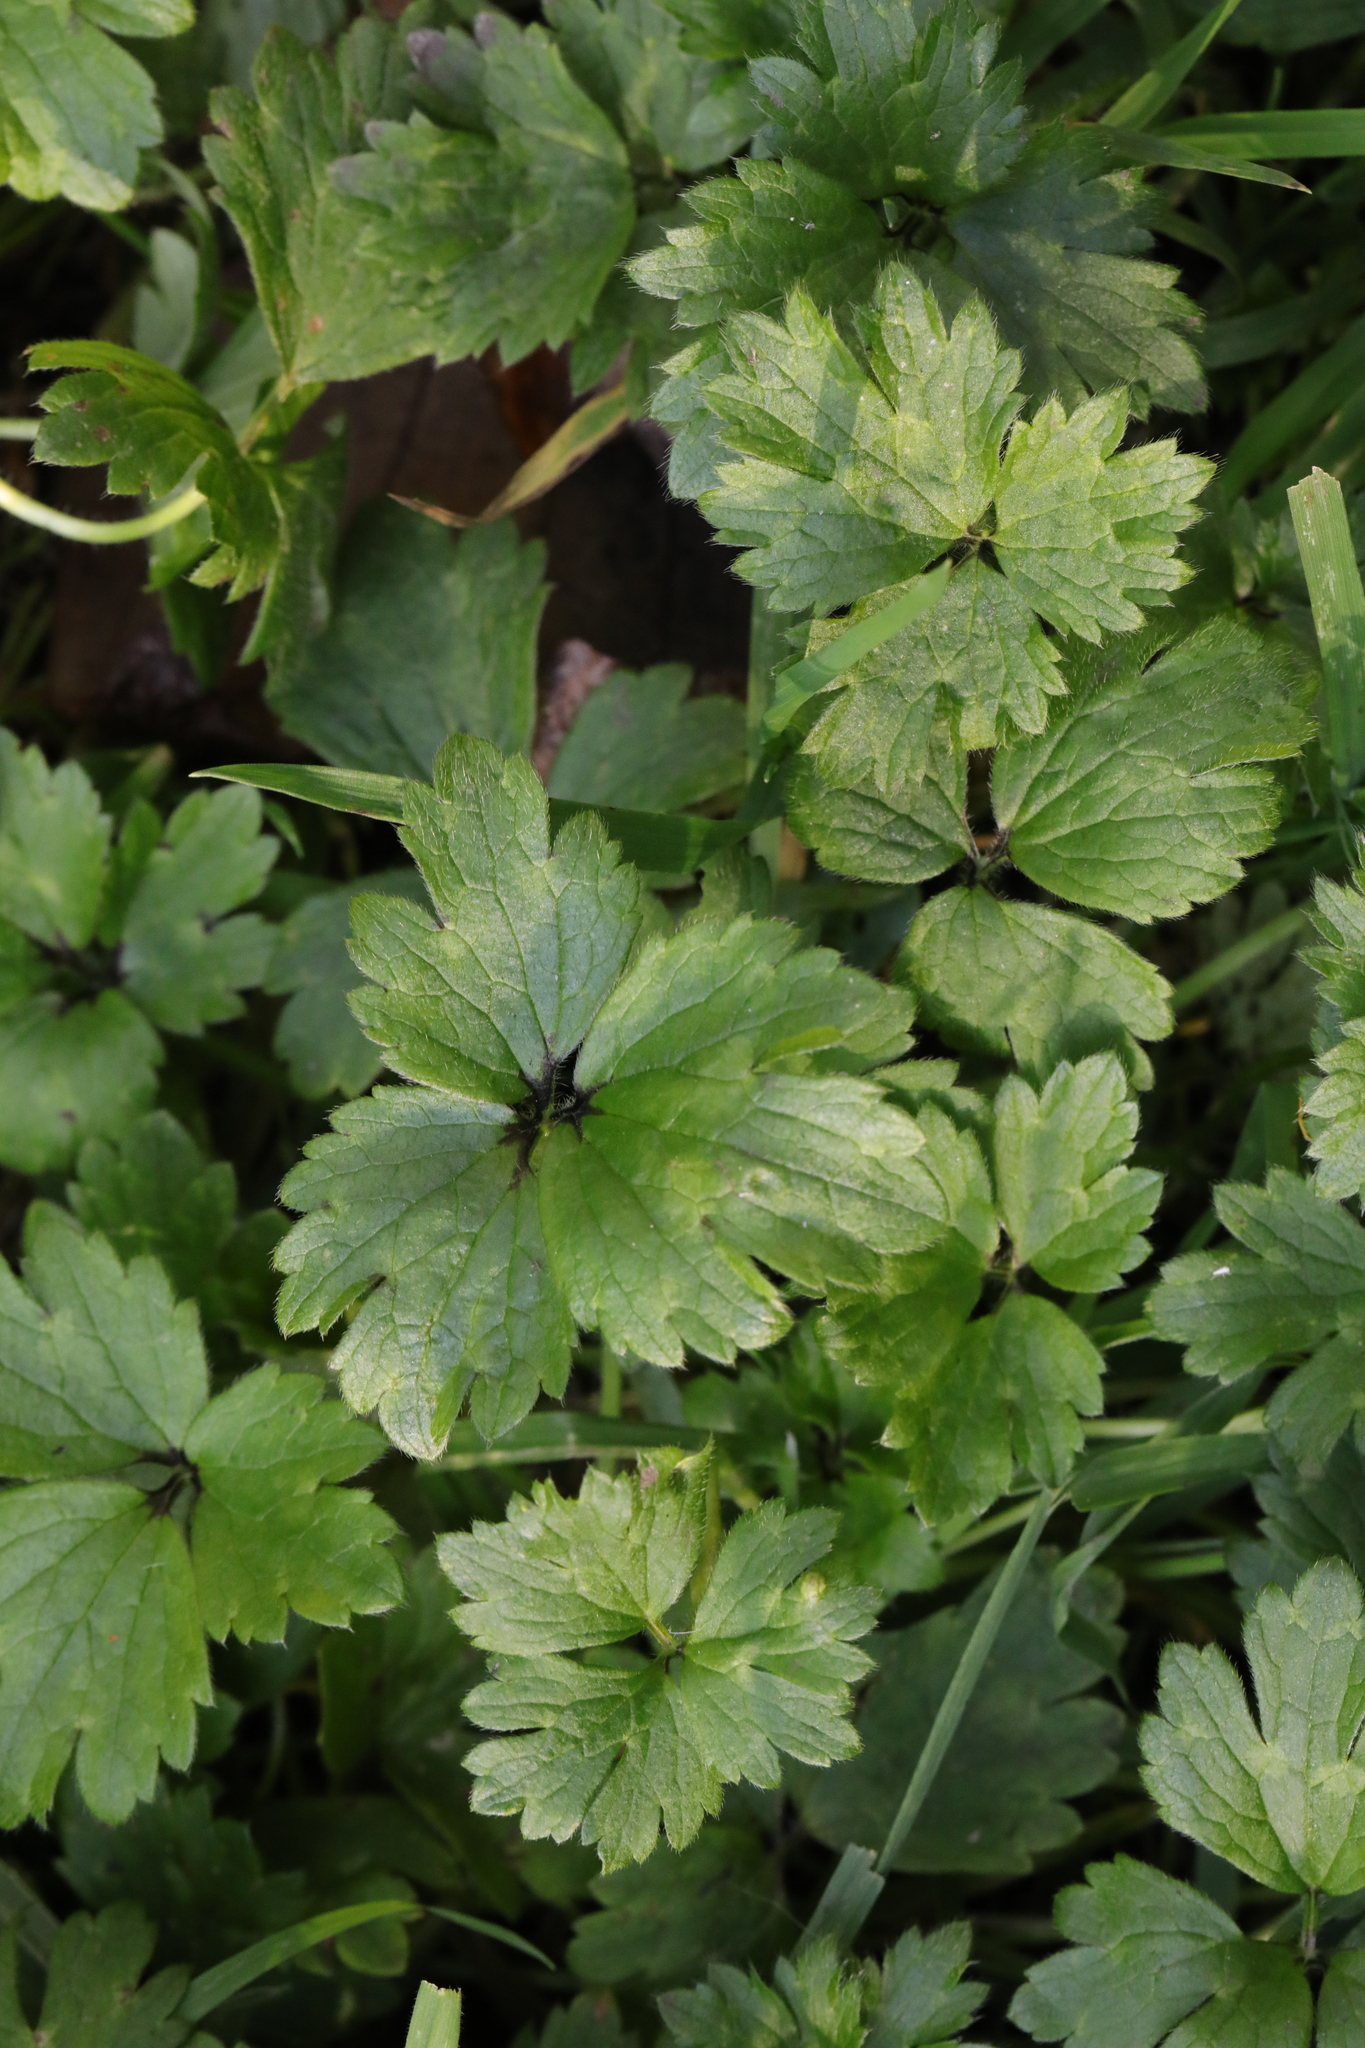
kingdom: Plantae
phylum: Tracheophyta
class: Magnoliopsida
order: Ranunculales
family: Ranunculaceae
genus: Ranunculus
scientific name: Ranunculus repens
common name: Creeping buttercup
